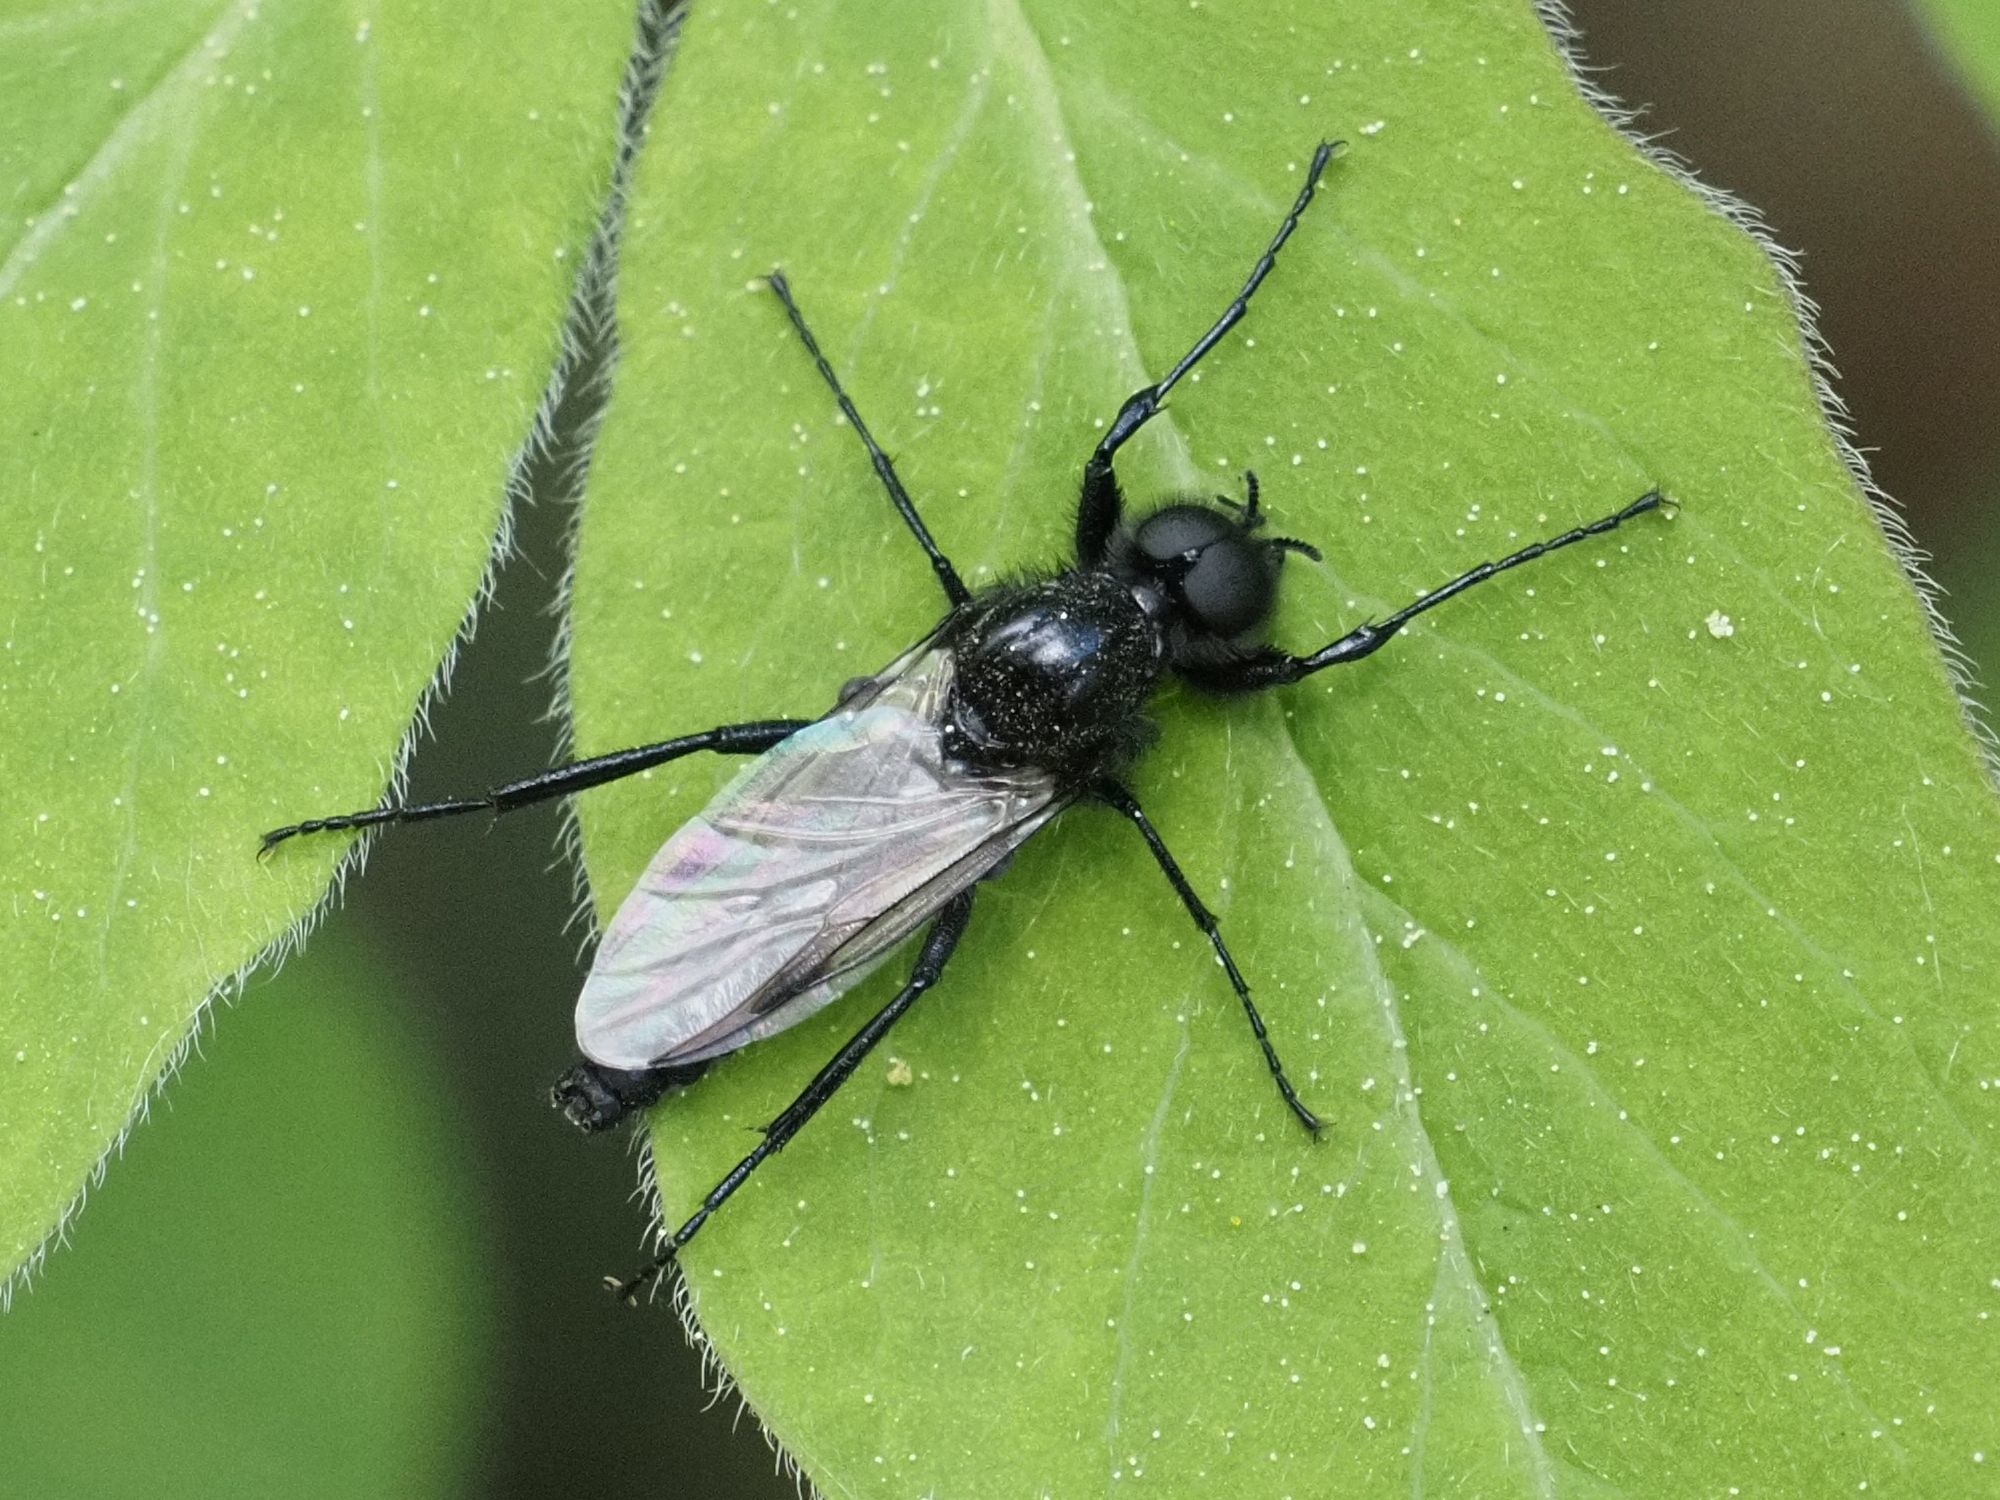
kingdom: Animalia
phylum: Arthropoda
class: Insecta
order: Diptera
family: Bibionidae
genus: Bibio
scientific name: Bibio marci
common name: St marks fly
